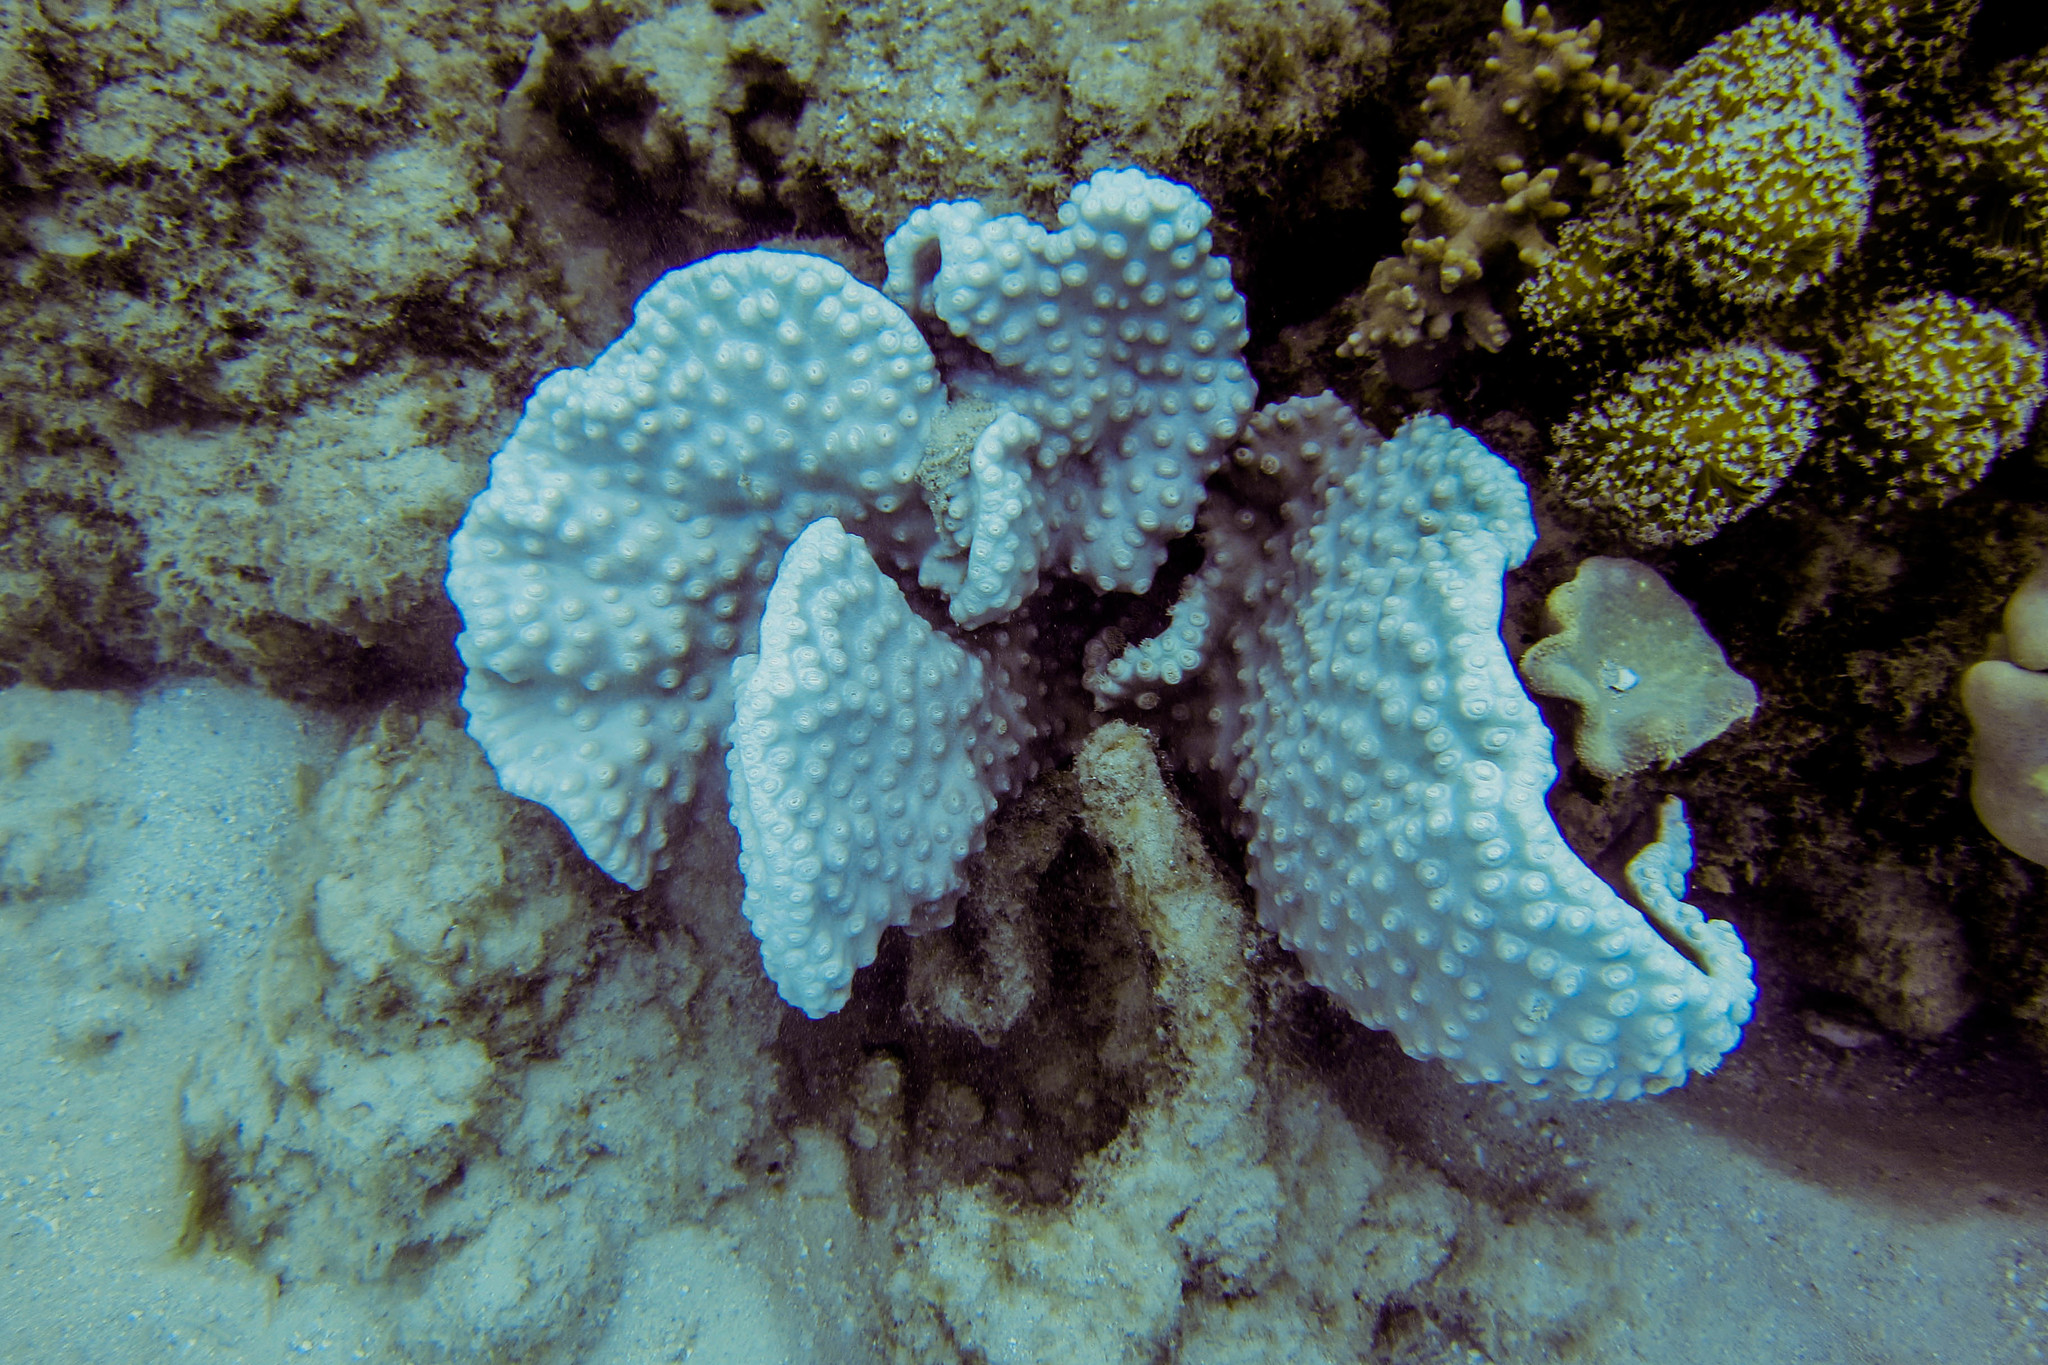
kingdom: Animalia
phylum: Cnidaria
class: Anthozoa
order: Scleractinia
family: Dendrophylliidae
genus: Duncanopsammia
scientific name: Duncanopsammia peltata
